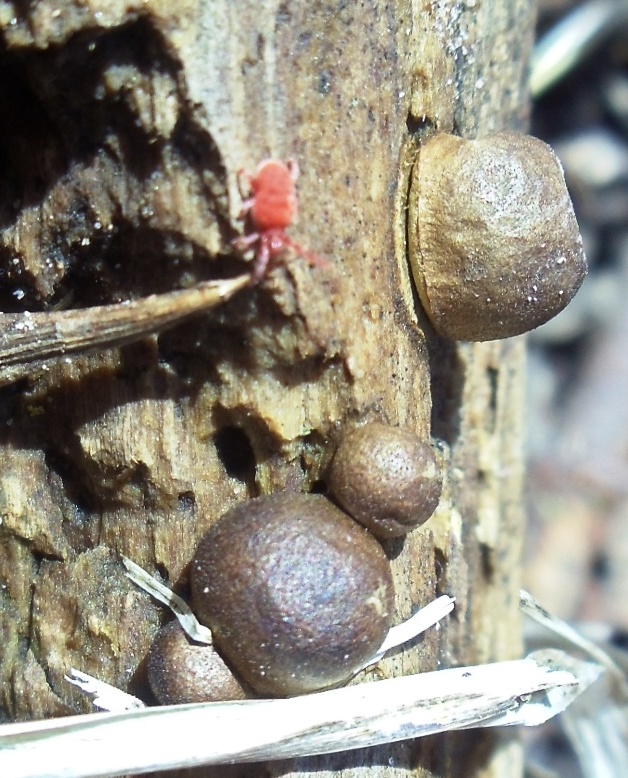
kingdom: Protozoa
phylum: Mycetozoa
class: Myxomycetes
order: Cribrariales
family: Tubiferaceae
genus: Lycogala
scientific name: Lycogala epidendrum
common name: Wolf's milk
